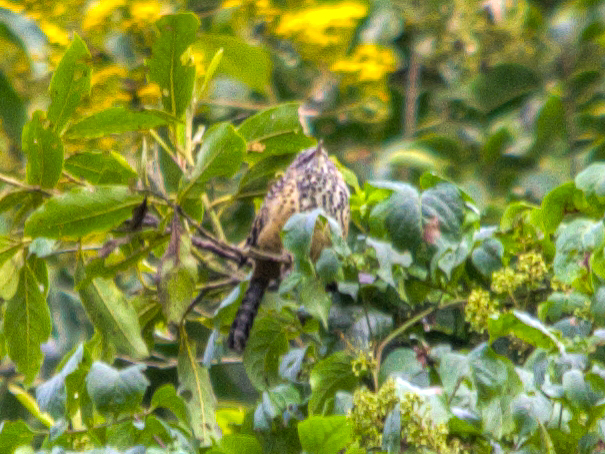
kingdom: Animalia
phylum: Chordata
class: Aves
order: Passeriformes
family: Troglodytidae
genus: Campylorhynchus
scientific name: Campylorhynchus zonatus
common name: Band-backed wren
